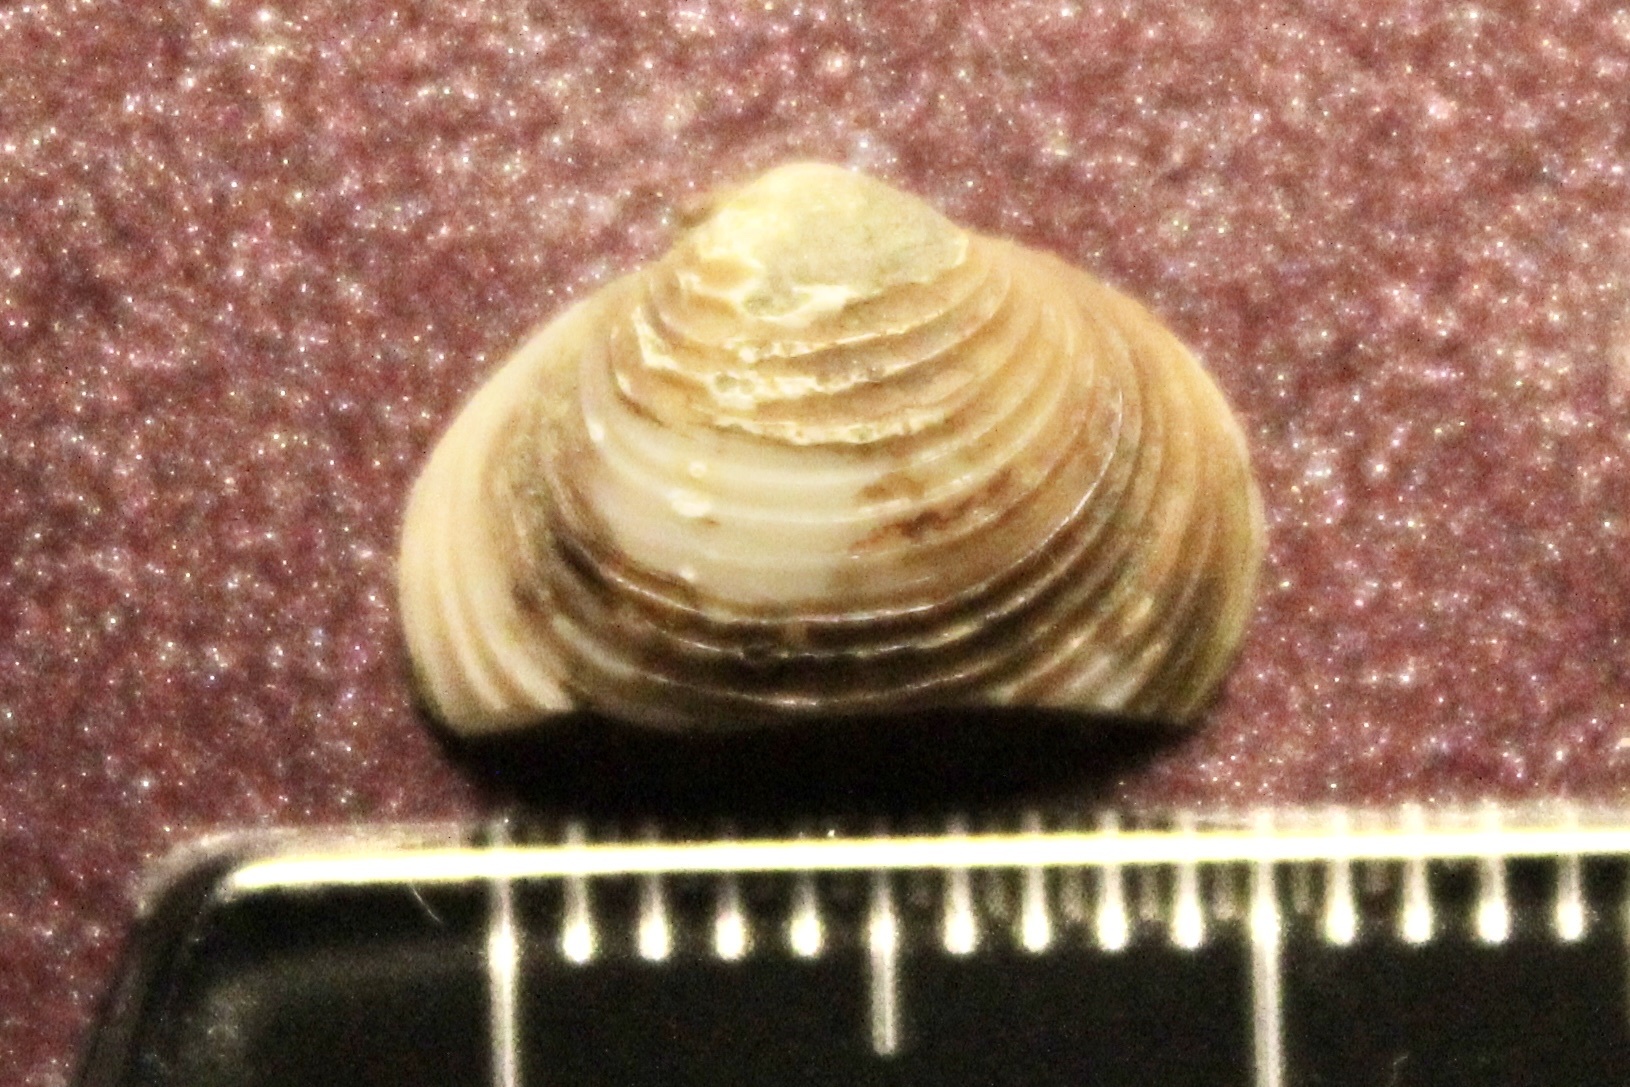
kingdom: Animalia
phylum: Mollusca
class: Bivalvia
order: Venerida
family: Cyrenidae
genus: Corbicula
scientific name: Corbicula fluminea
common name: Asian clam
